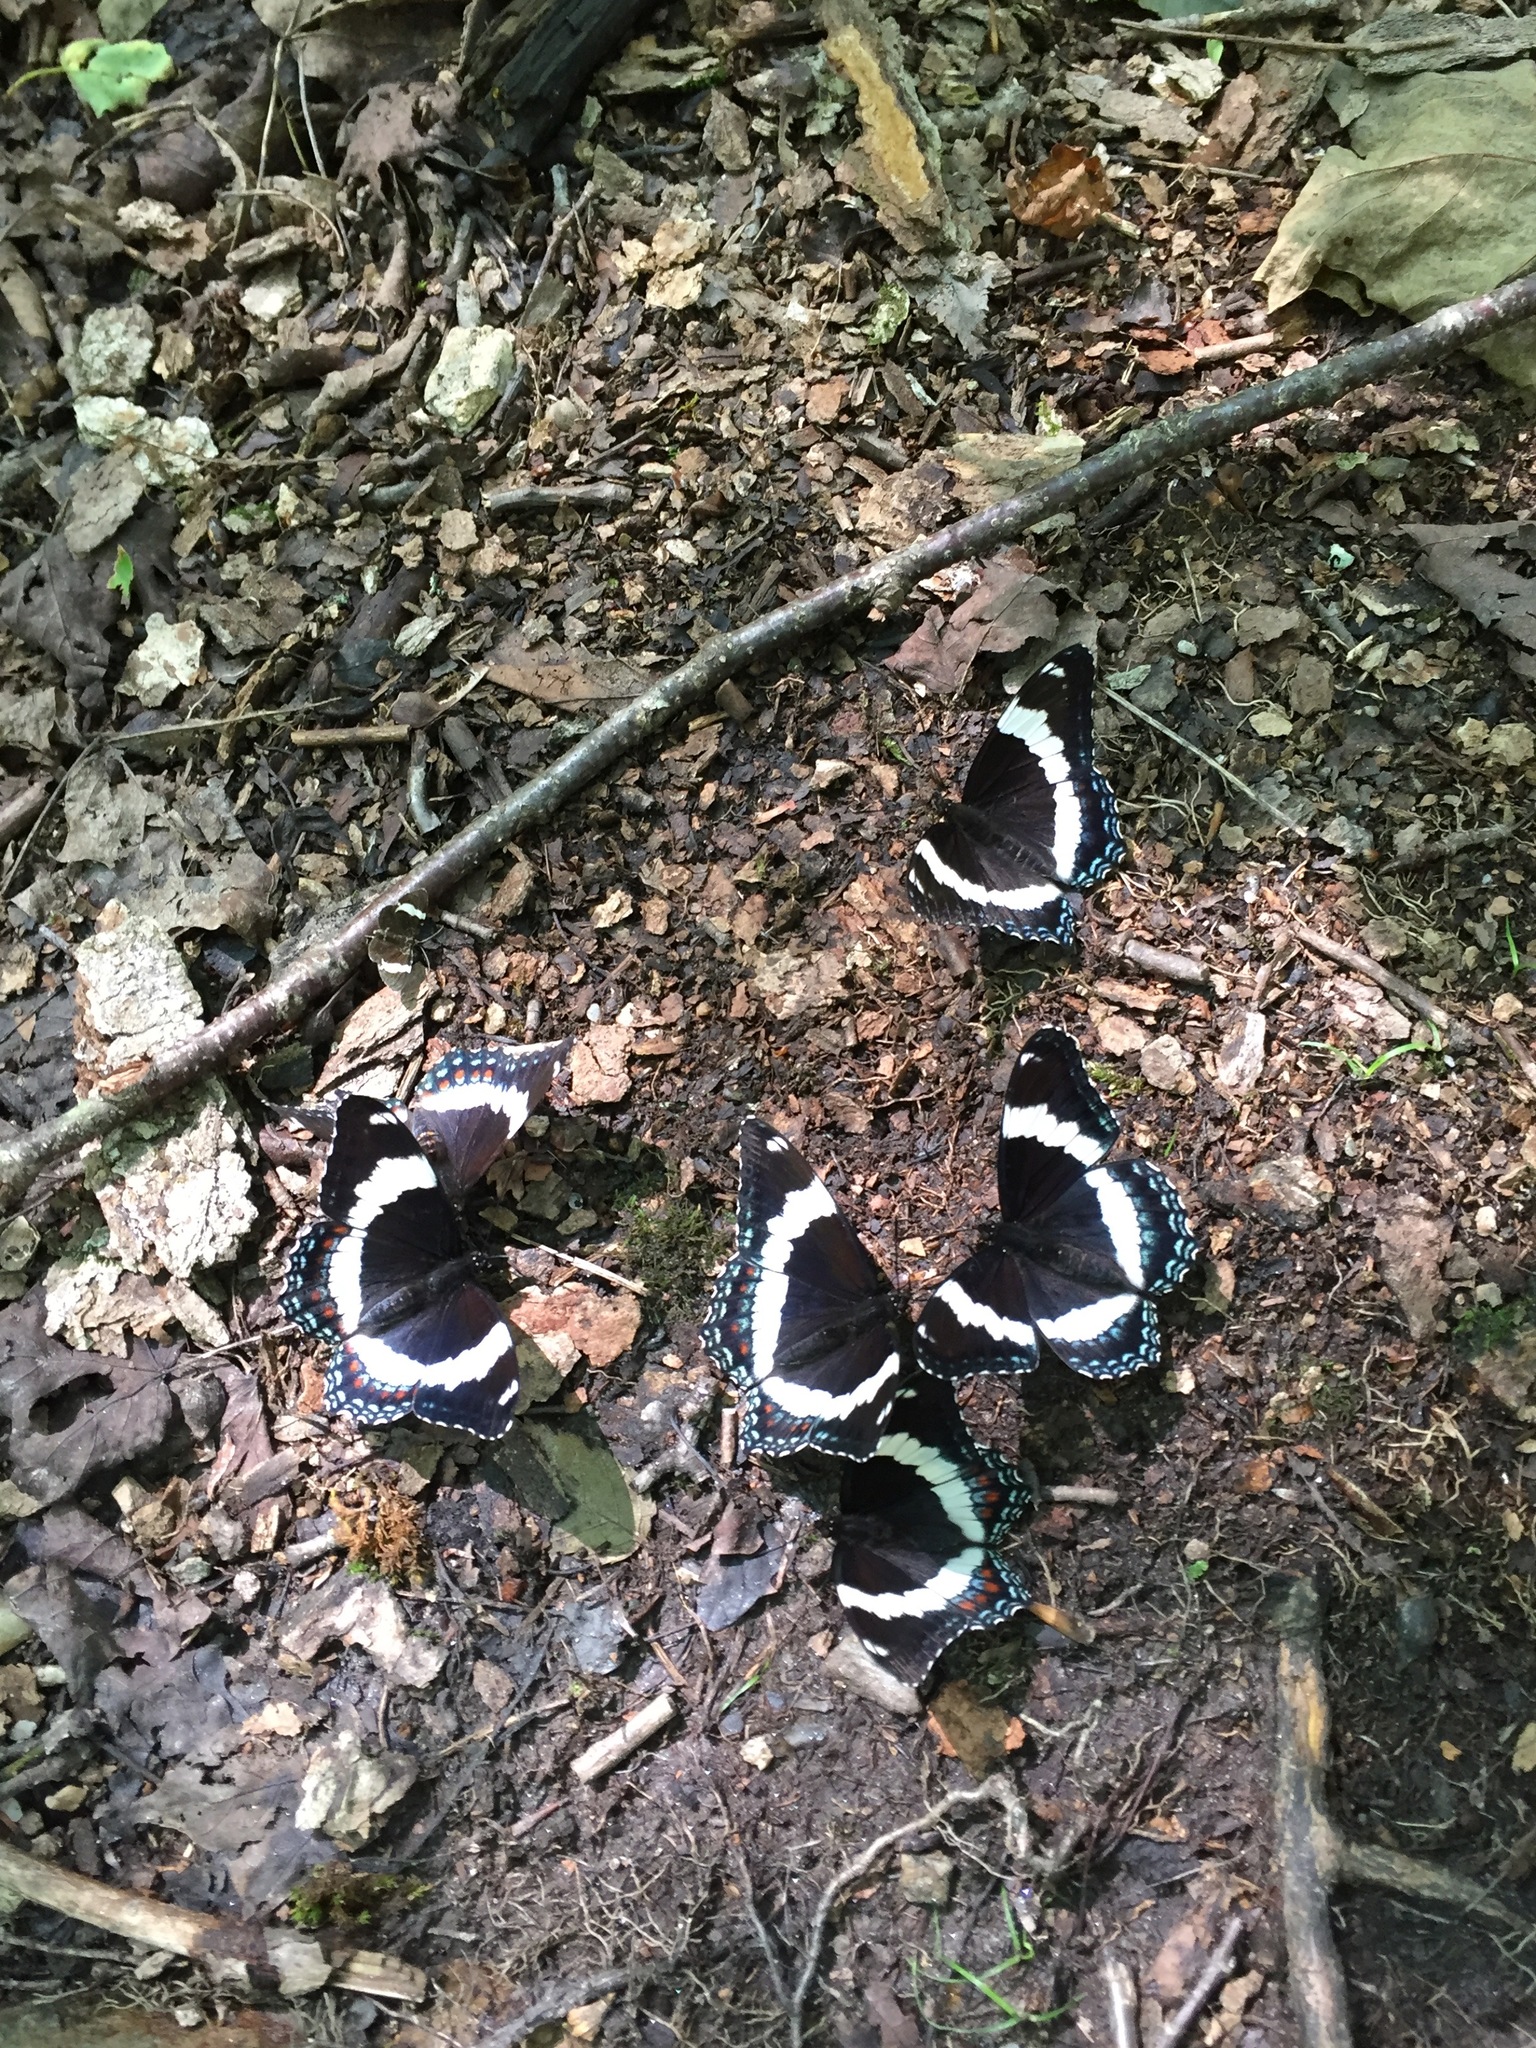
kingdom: Animalia
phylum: Arthropoda
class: Insecta
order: Lepidoptera
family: Nymphalidae
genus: Limenitis
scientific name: Limenitis arthemis
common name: Red-spotted admiral
